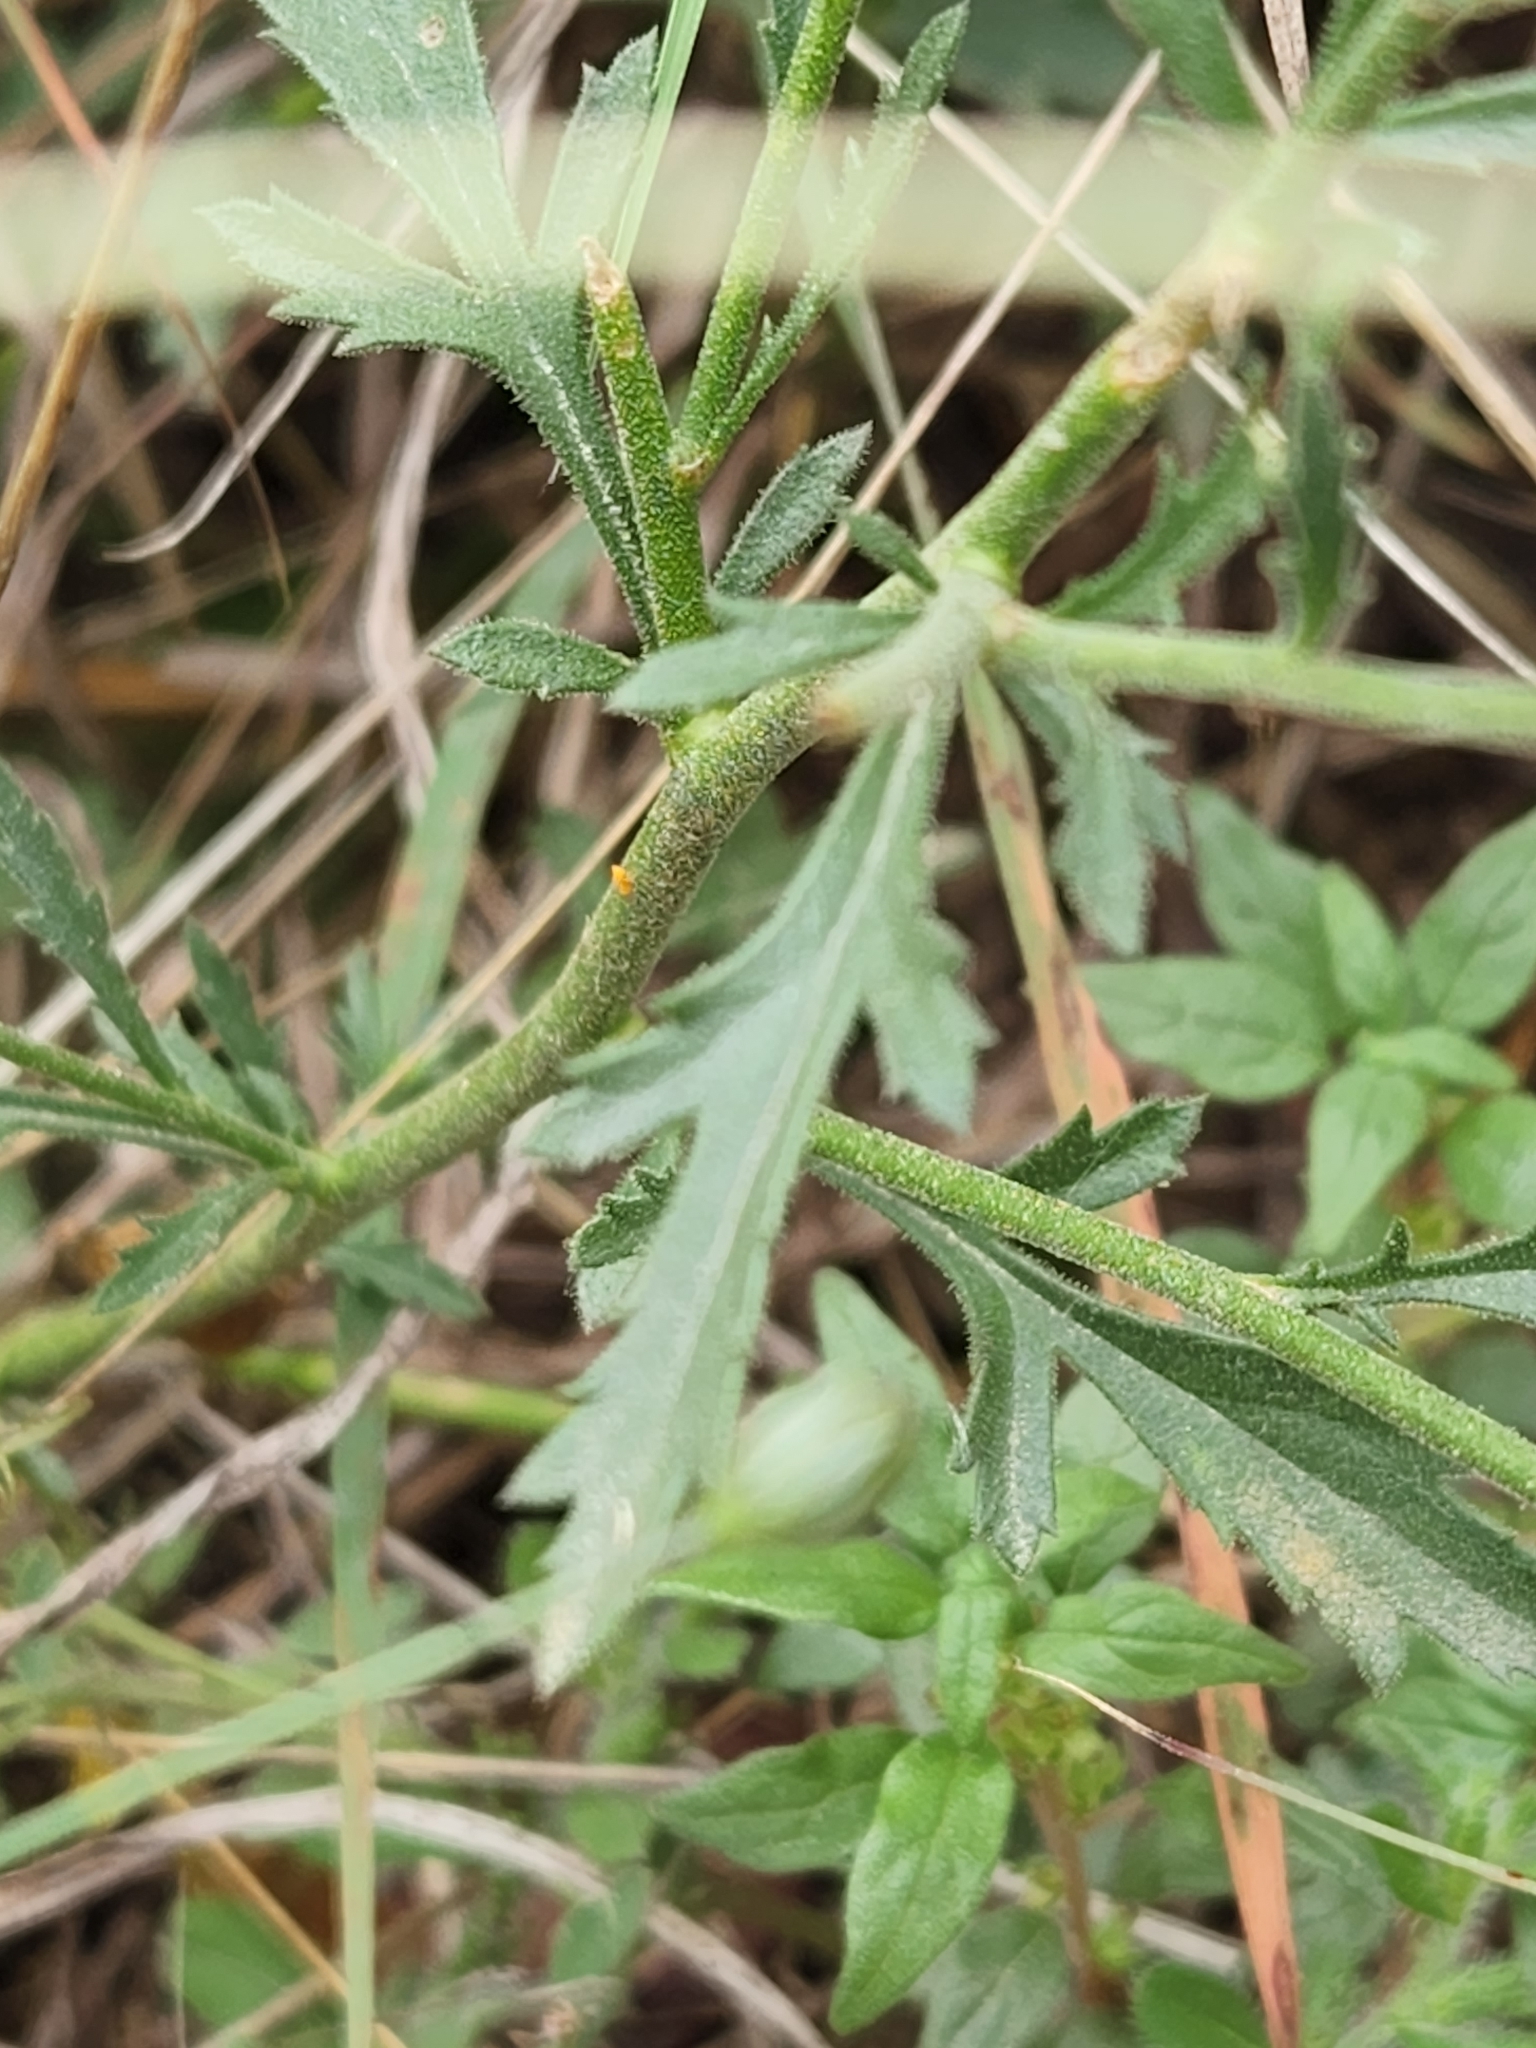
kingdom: Plantae
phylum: Tracheophyta
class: Magnoliopsida
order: Ericales
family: Polemoniaceae
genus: Giliastrum
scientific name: Giliastrum incisum
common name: Splitleaf gilia
